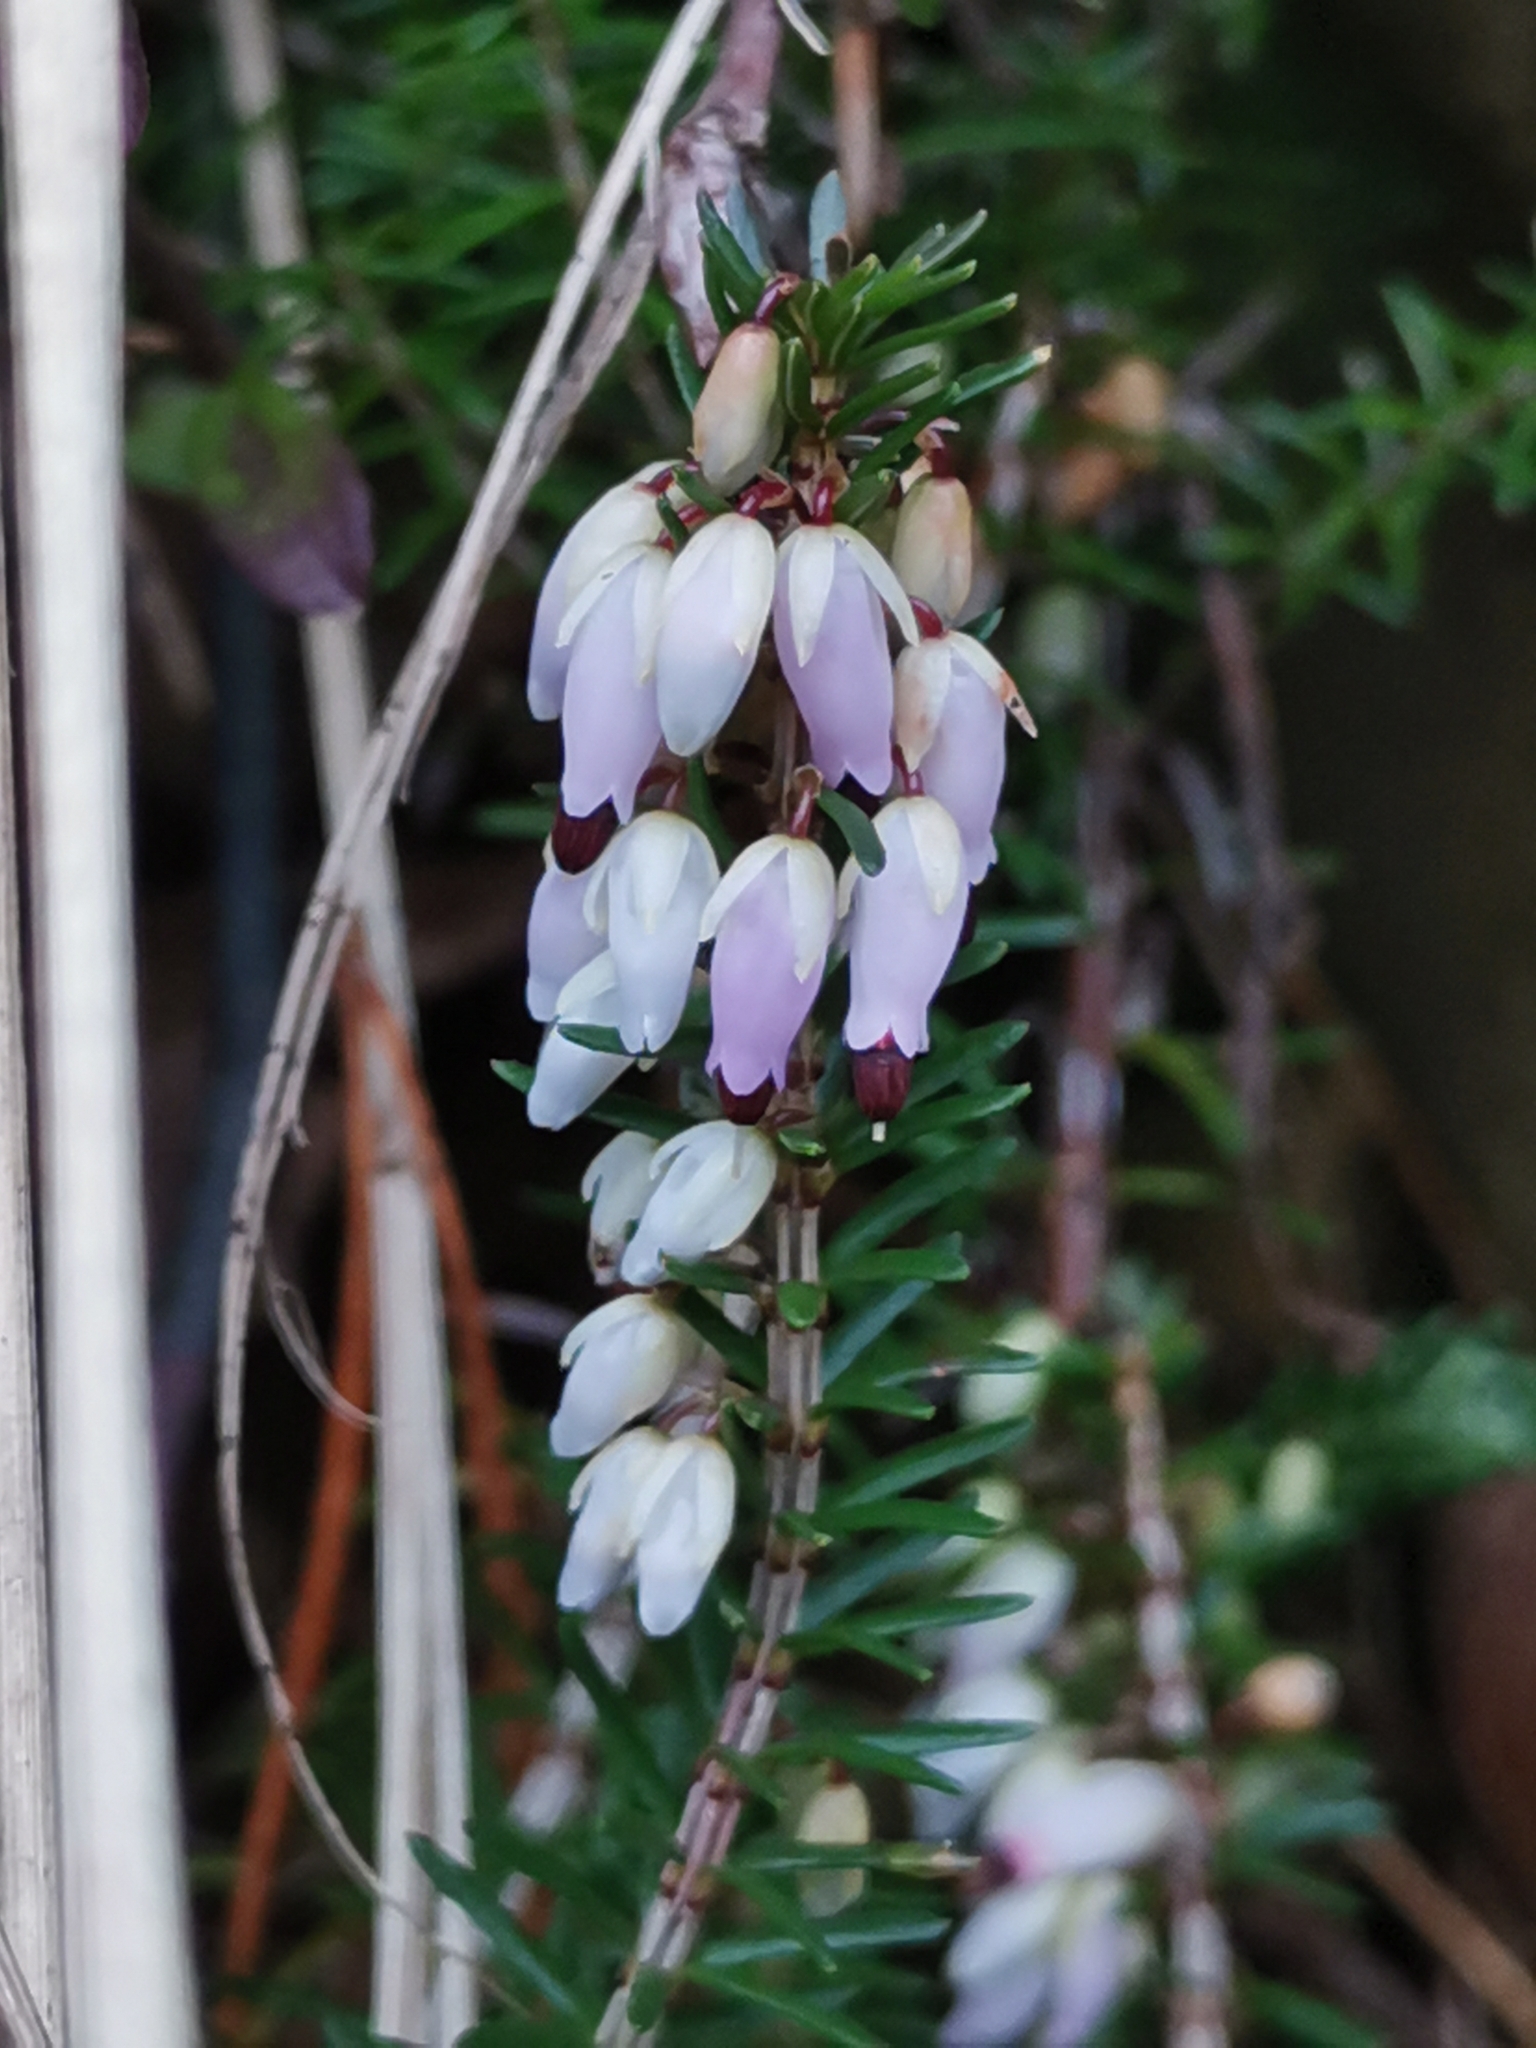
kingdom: Plantae
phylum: Tracheophyta
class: Magnoliopsida
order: Ericales
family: Ericaceae
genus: Erica
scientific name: Erica carnea
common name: Winter heath
